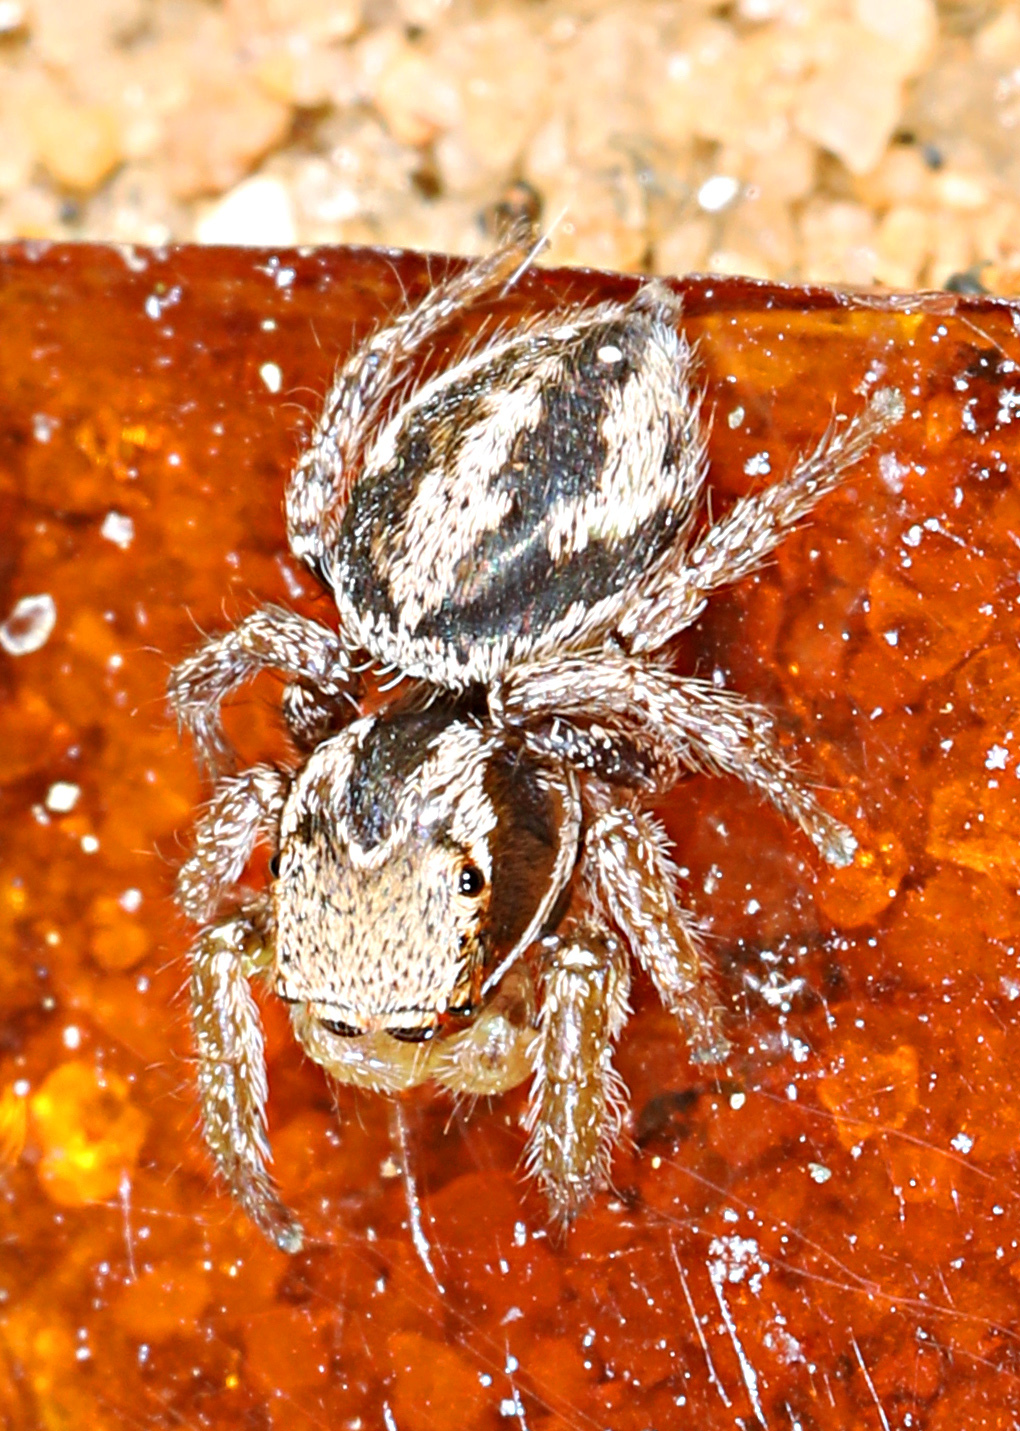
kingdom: Animalia
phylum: Arthropoda
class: Arachnida
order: Araneae
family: Salticidae
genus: Habronattus
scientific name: Habronattus viridipes
